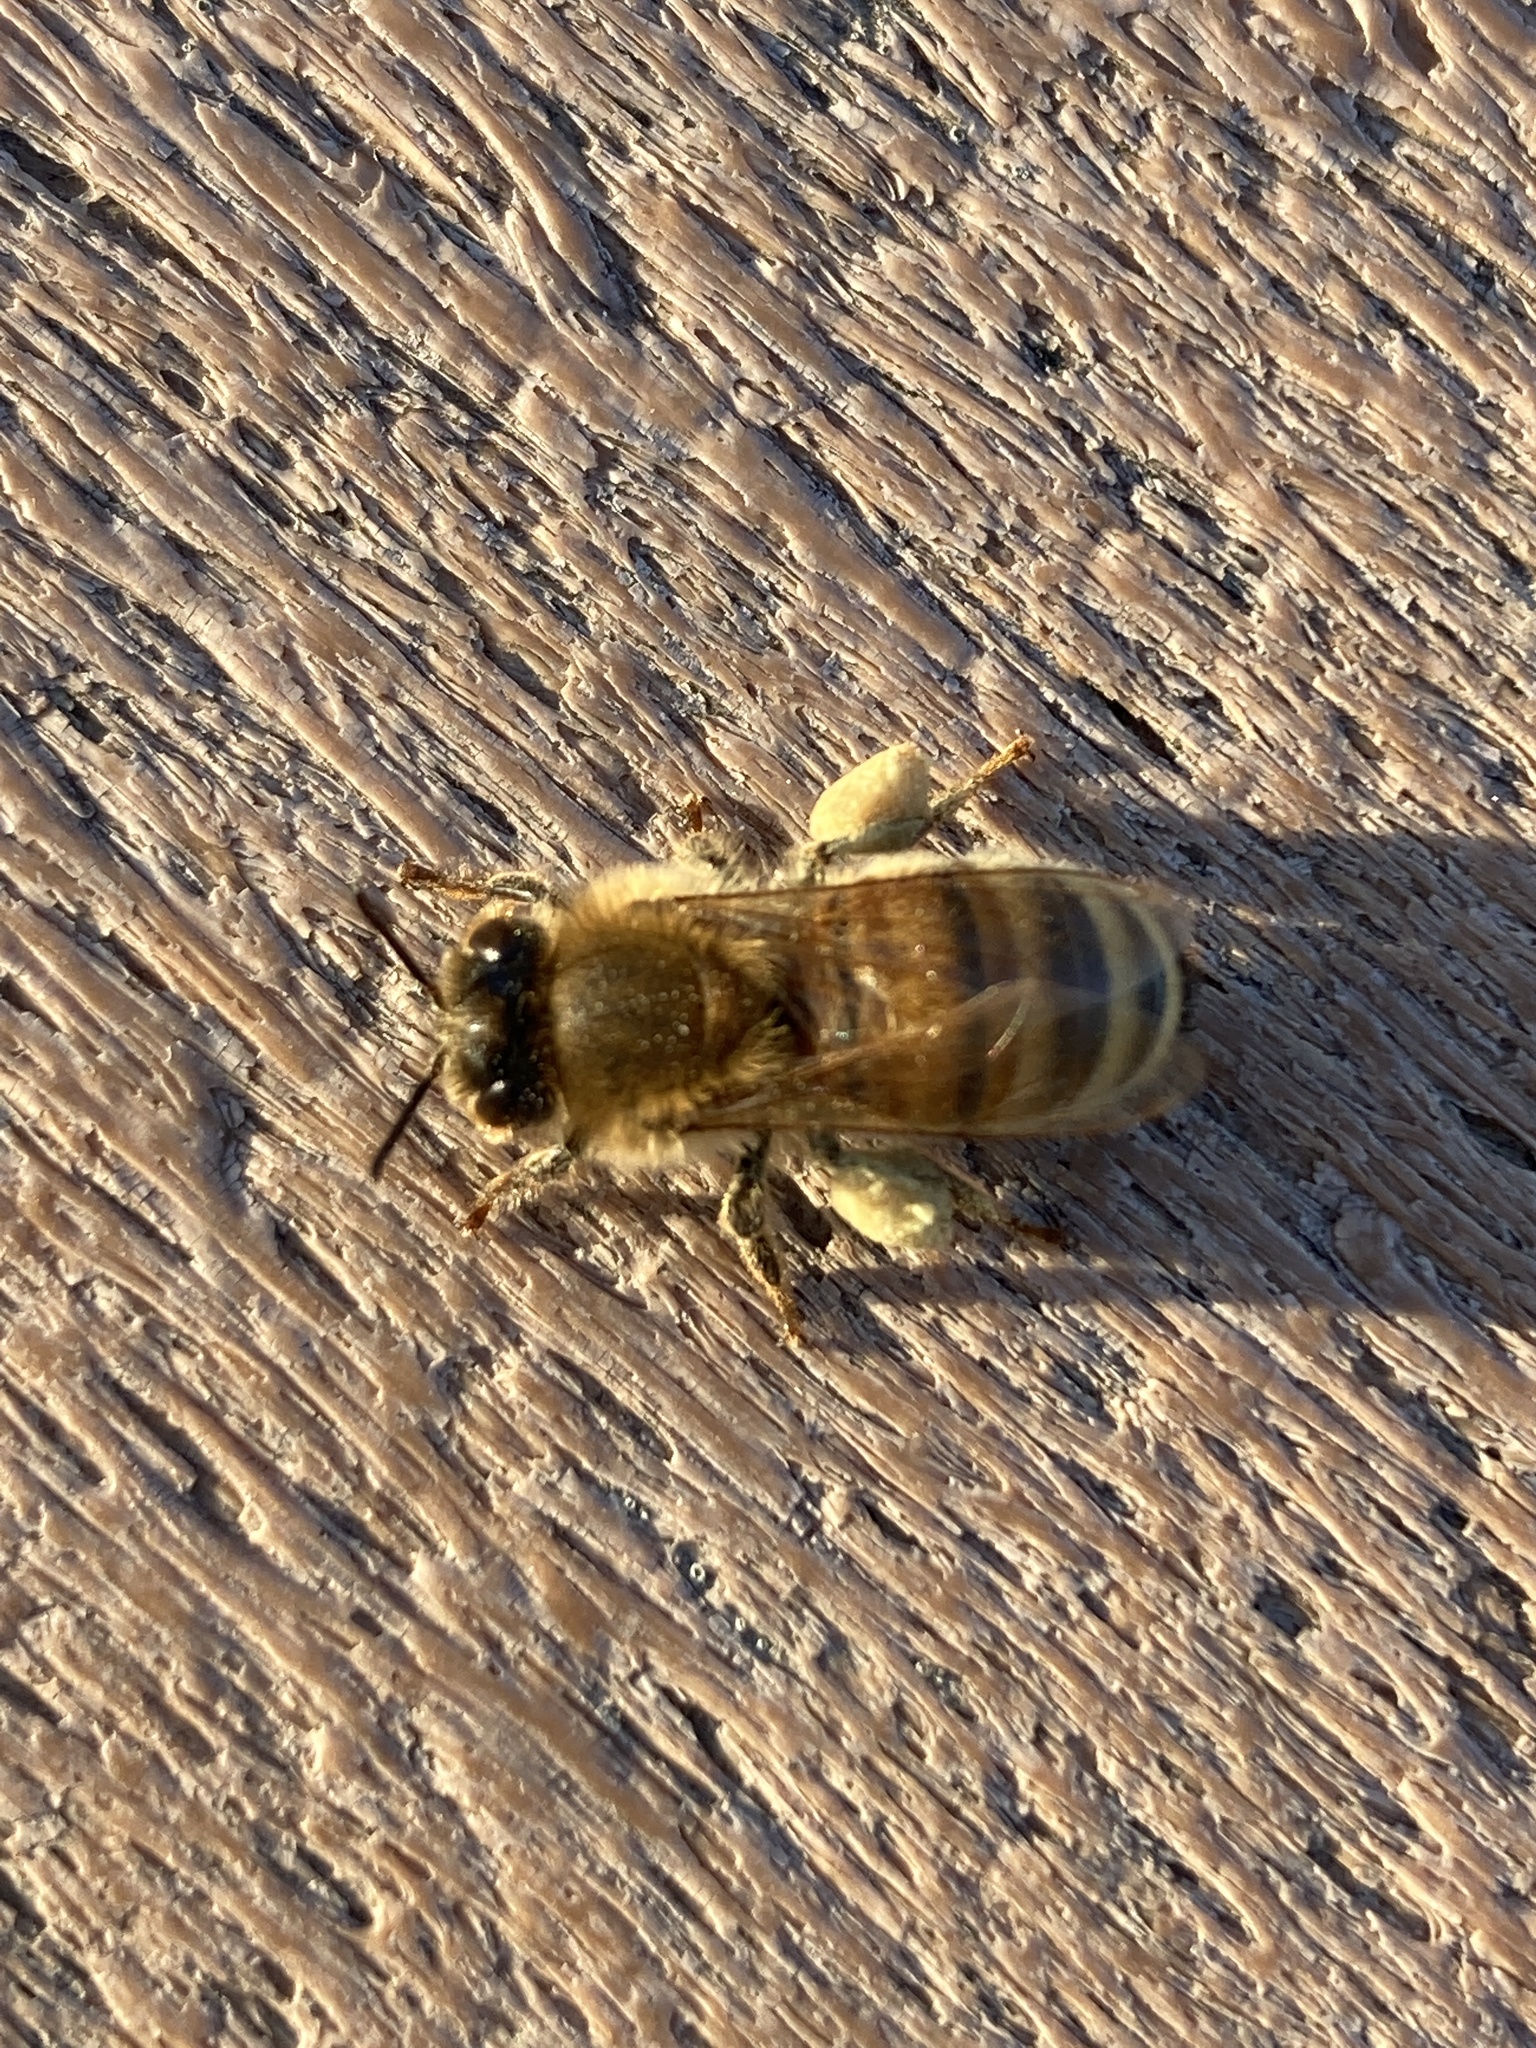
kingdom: Animalia
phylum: Arthropoda
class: Insecta
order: Hymenoptera
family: Apidae
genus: Apis
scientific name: Apis mellifera
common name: Honey bee
